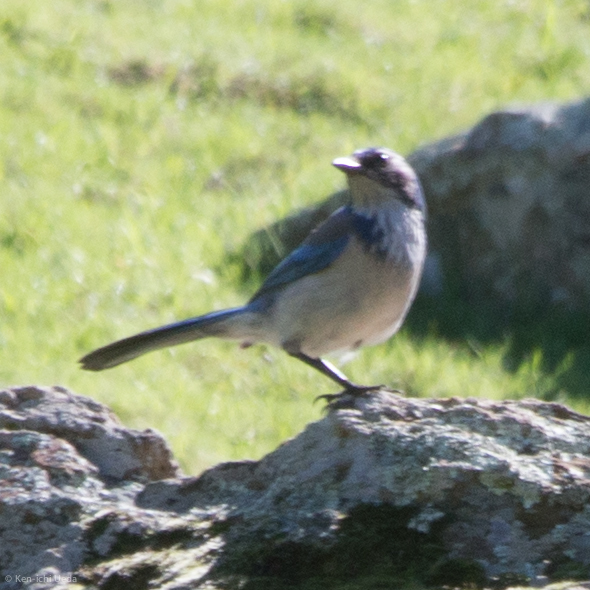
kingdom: Animalia
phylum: Chordata
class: Aves
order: Passeriformes
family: Corvidae
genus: Aphelocoma
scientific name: Aphelocoma californica
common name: California scrub-jay
